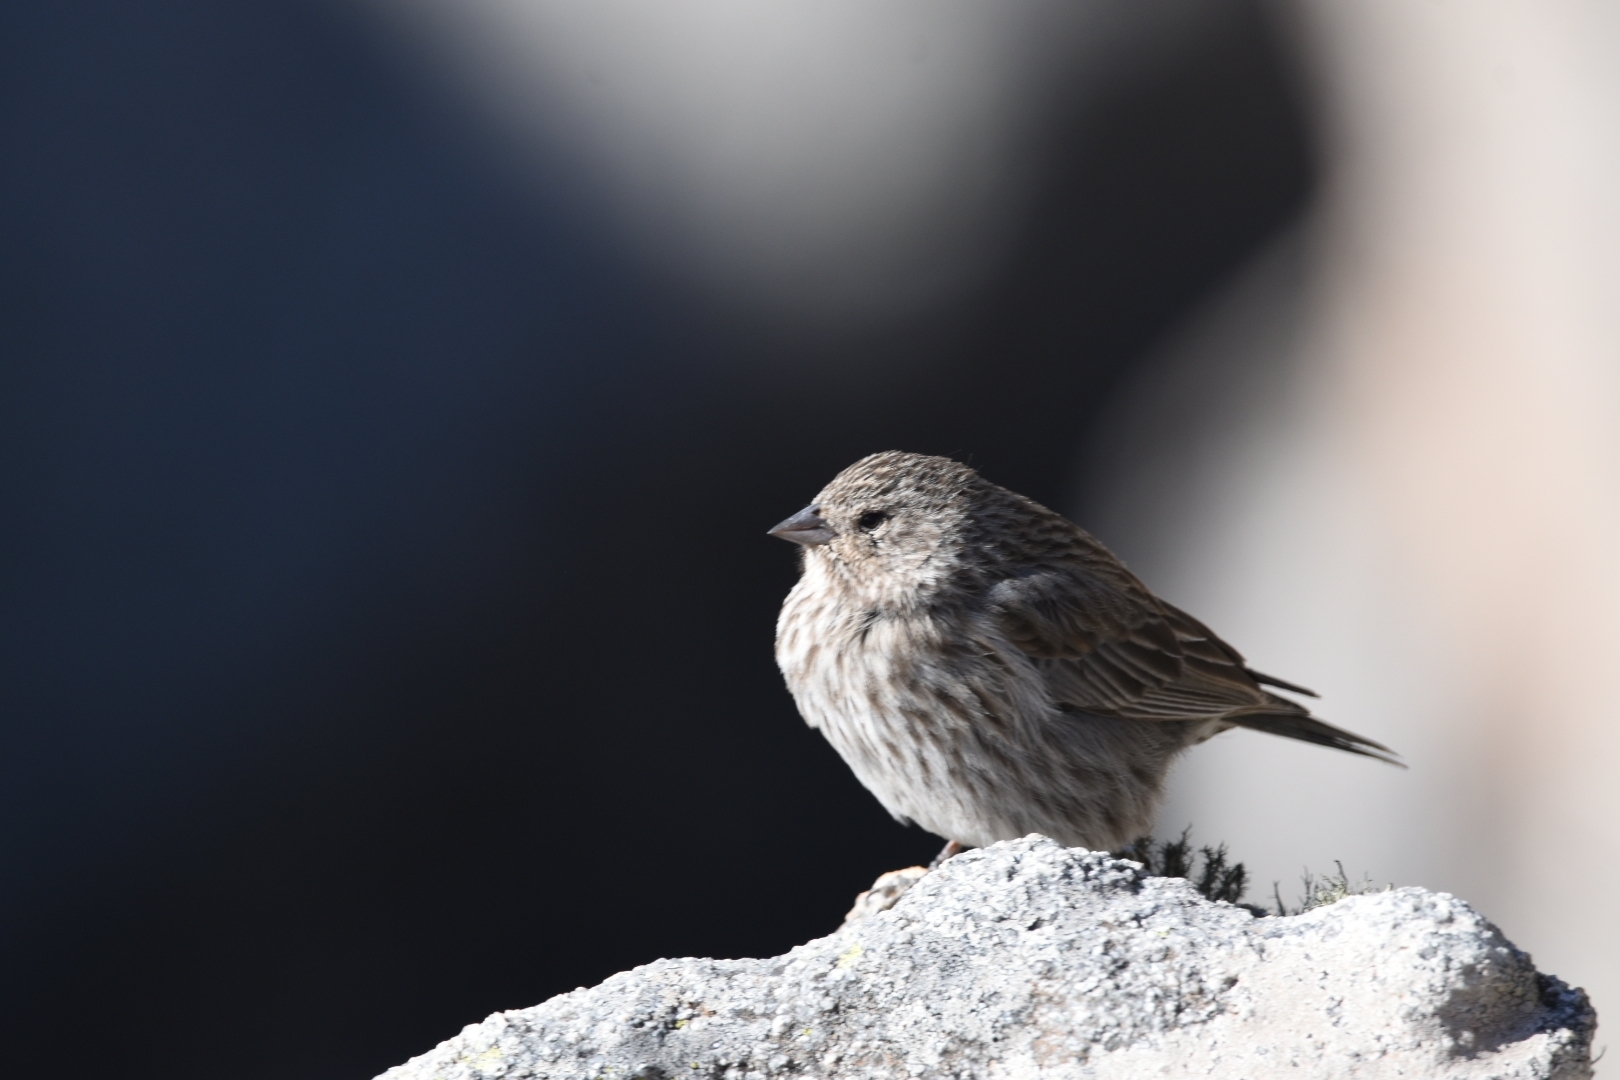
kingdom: Animalia
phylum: Chordata
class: Aves
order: Passeriformes
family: Thraupidae
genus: Geospizopsis
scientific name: Geospizopsis unicolor
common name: Plumbeous sierra-finch
